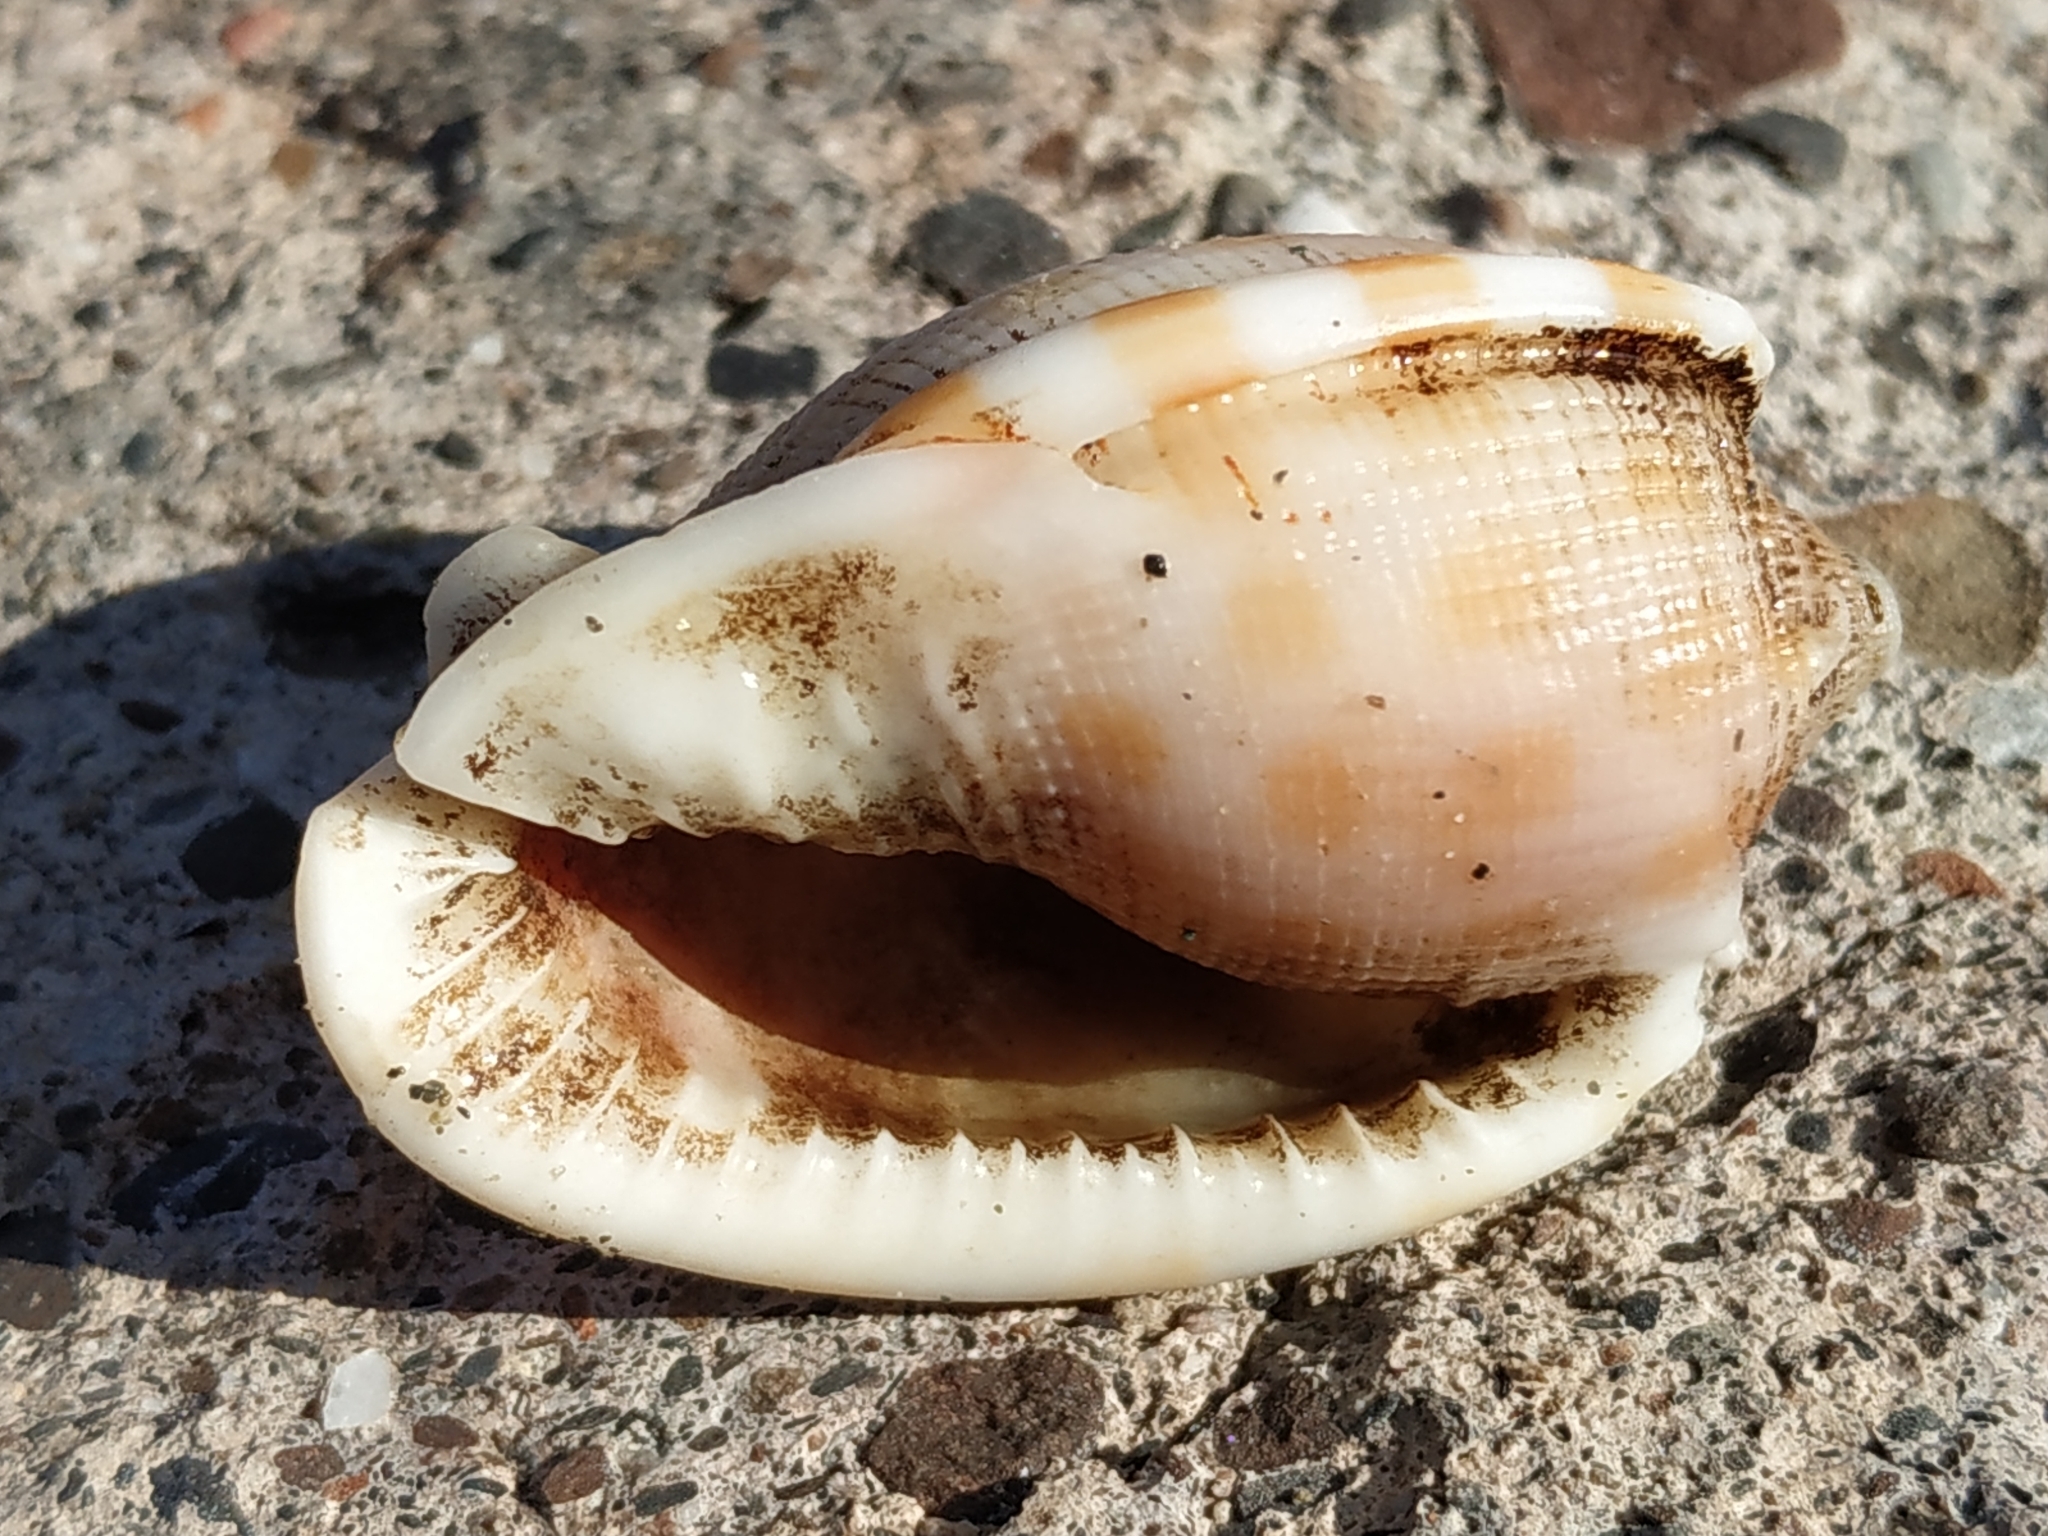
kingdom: Animalia
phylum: Mollusca
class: Gastropoda
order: Littorinimorpha
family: Cassidae
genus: Phalium
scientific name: Phalium decussatum
